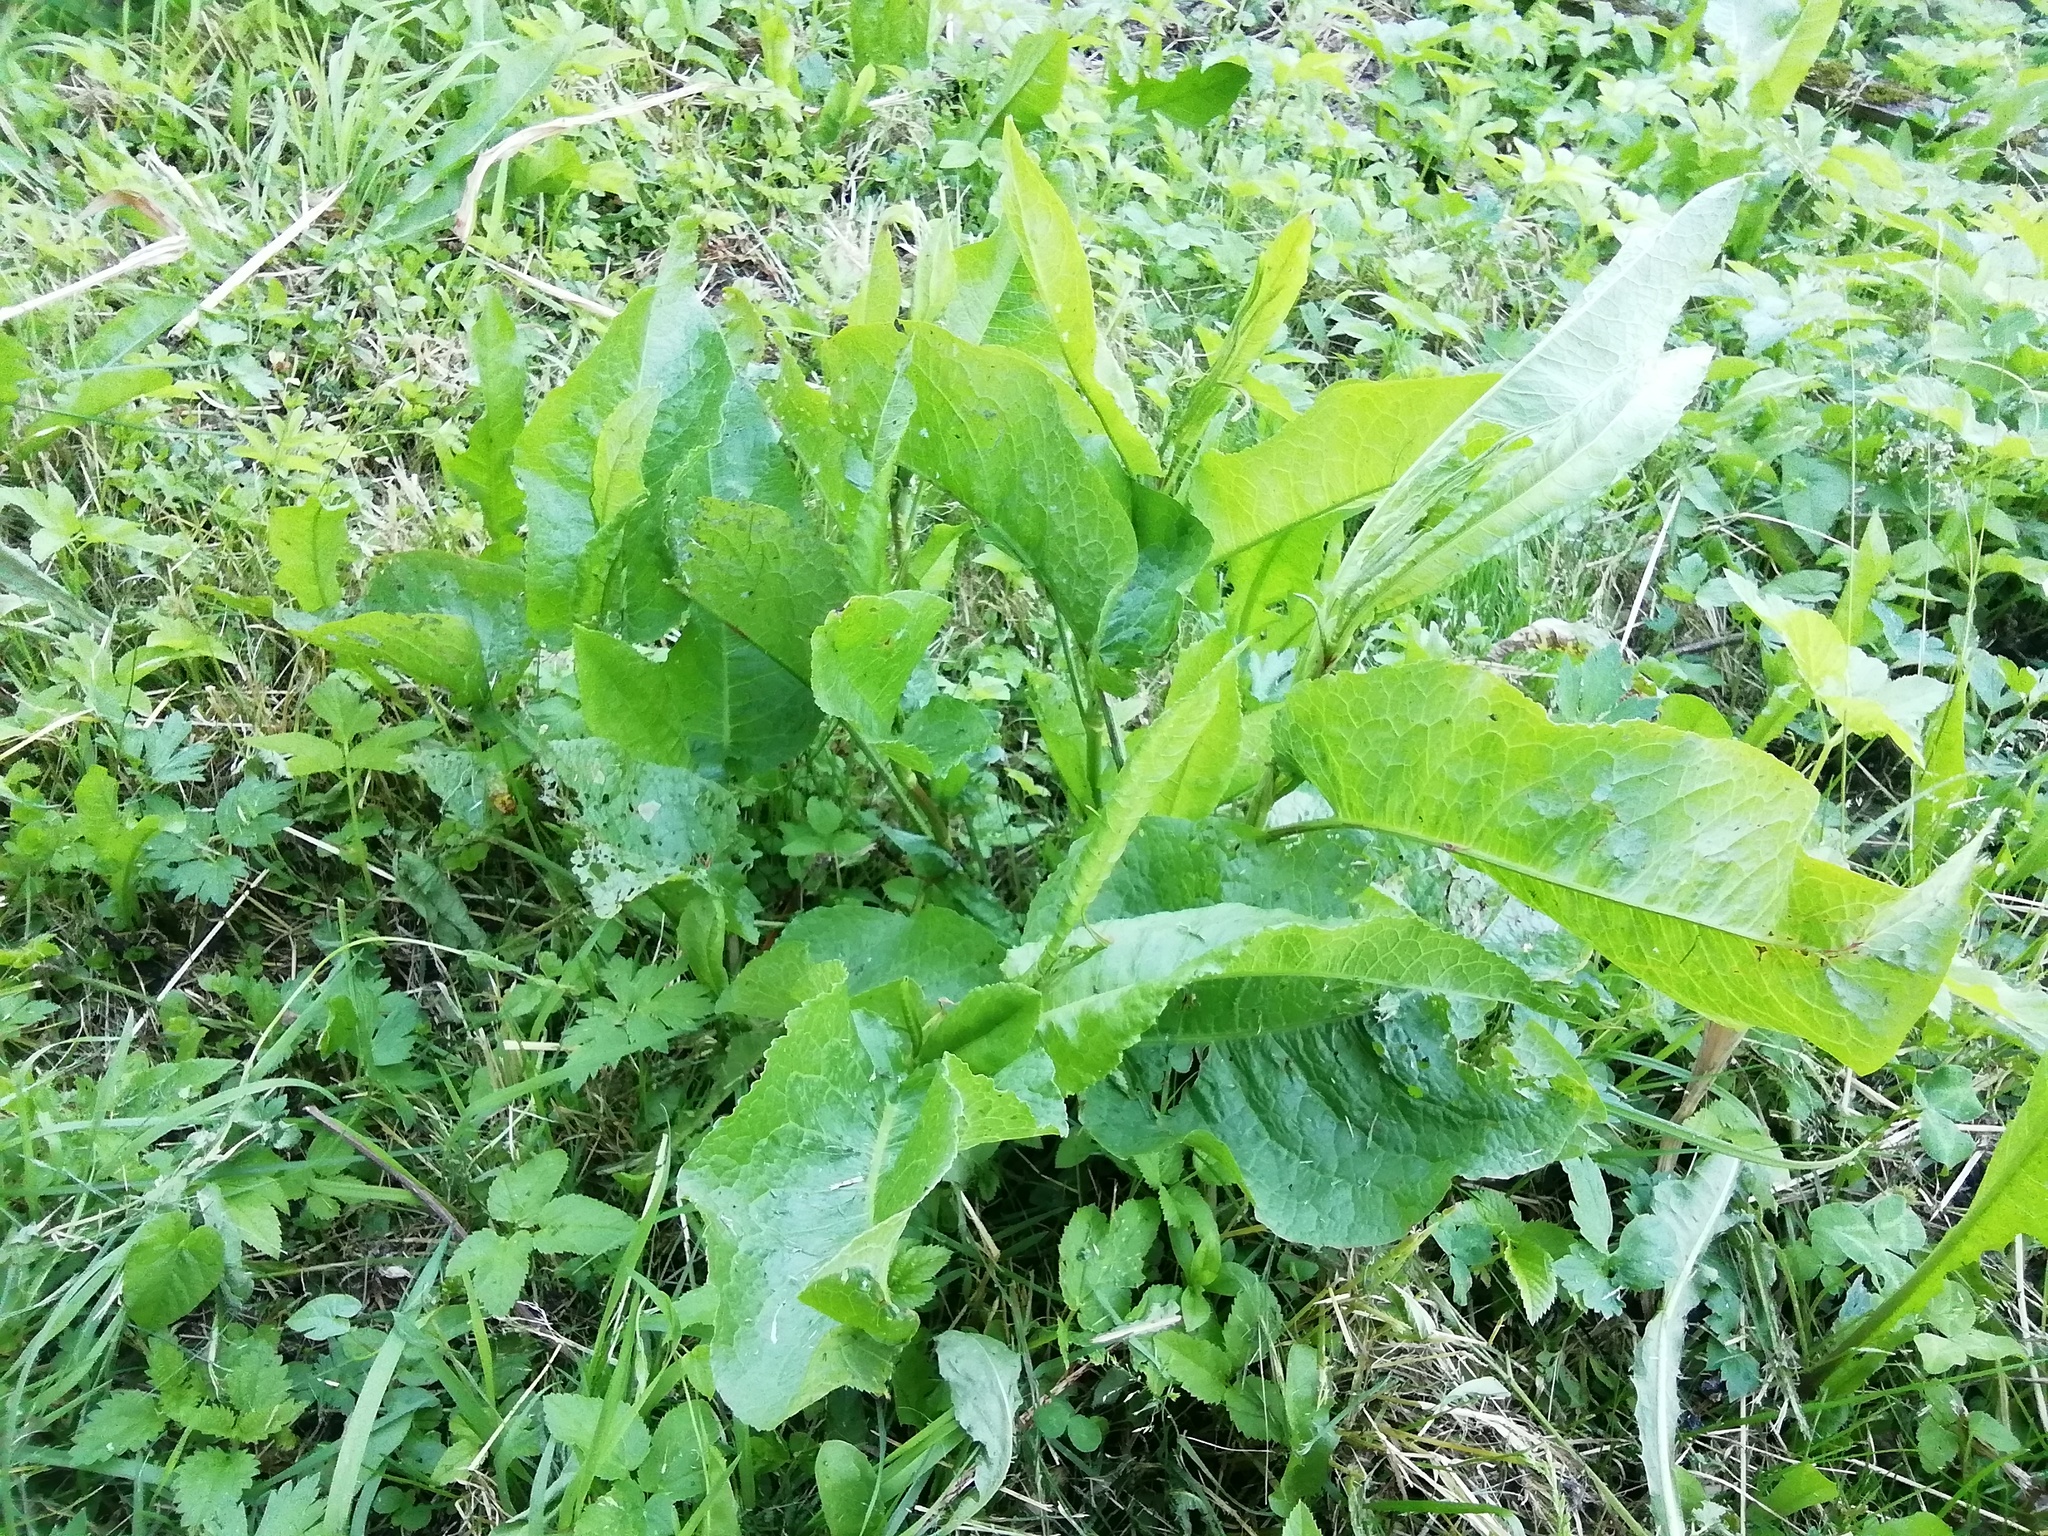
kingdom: Plantae
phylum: Tracheophyta
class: Magnoliopsida
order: Caryophyllales
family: Polygonaceae
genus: Rumex
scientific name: Rumex obtusifolius
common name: Bitter dock
